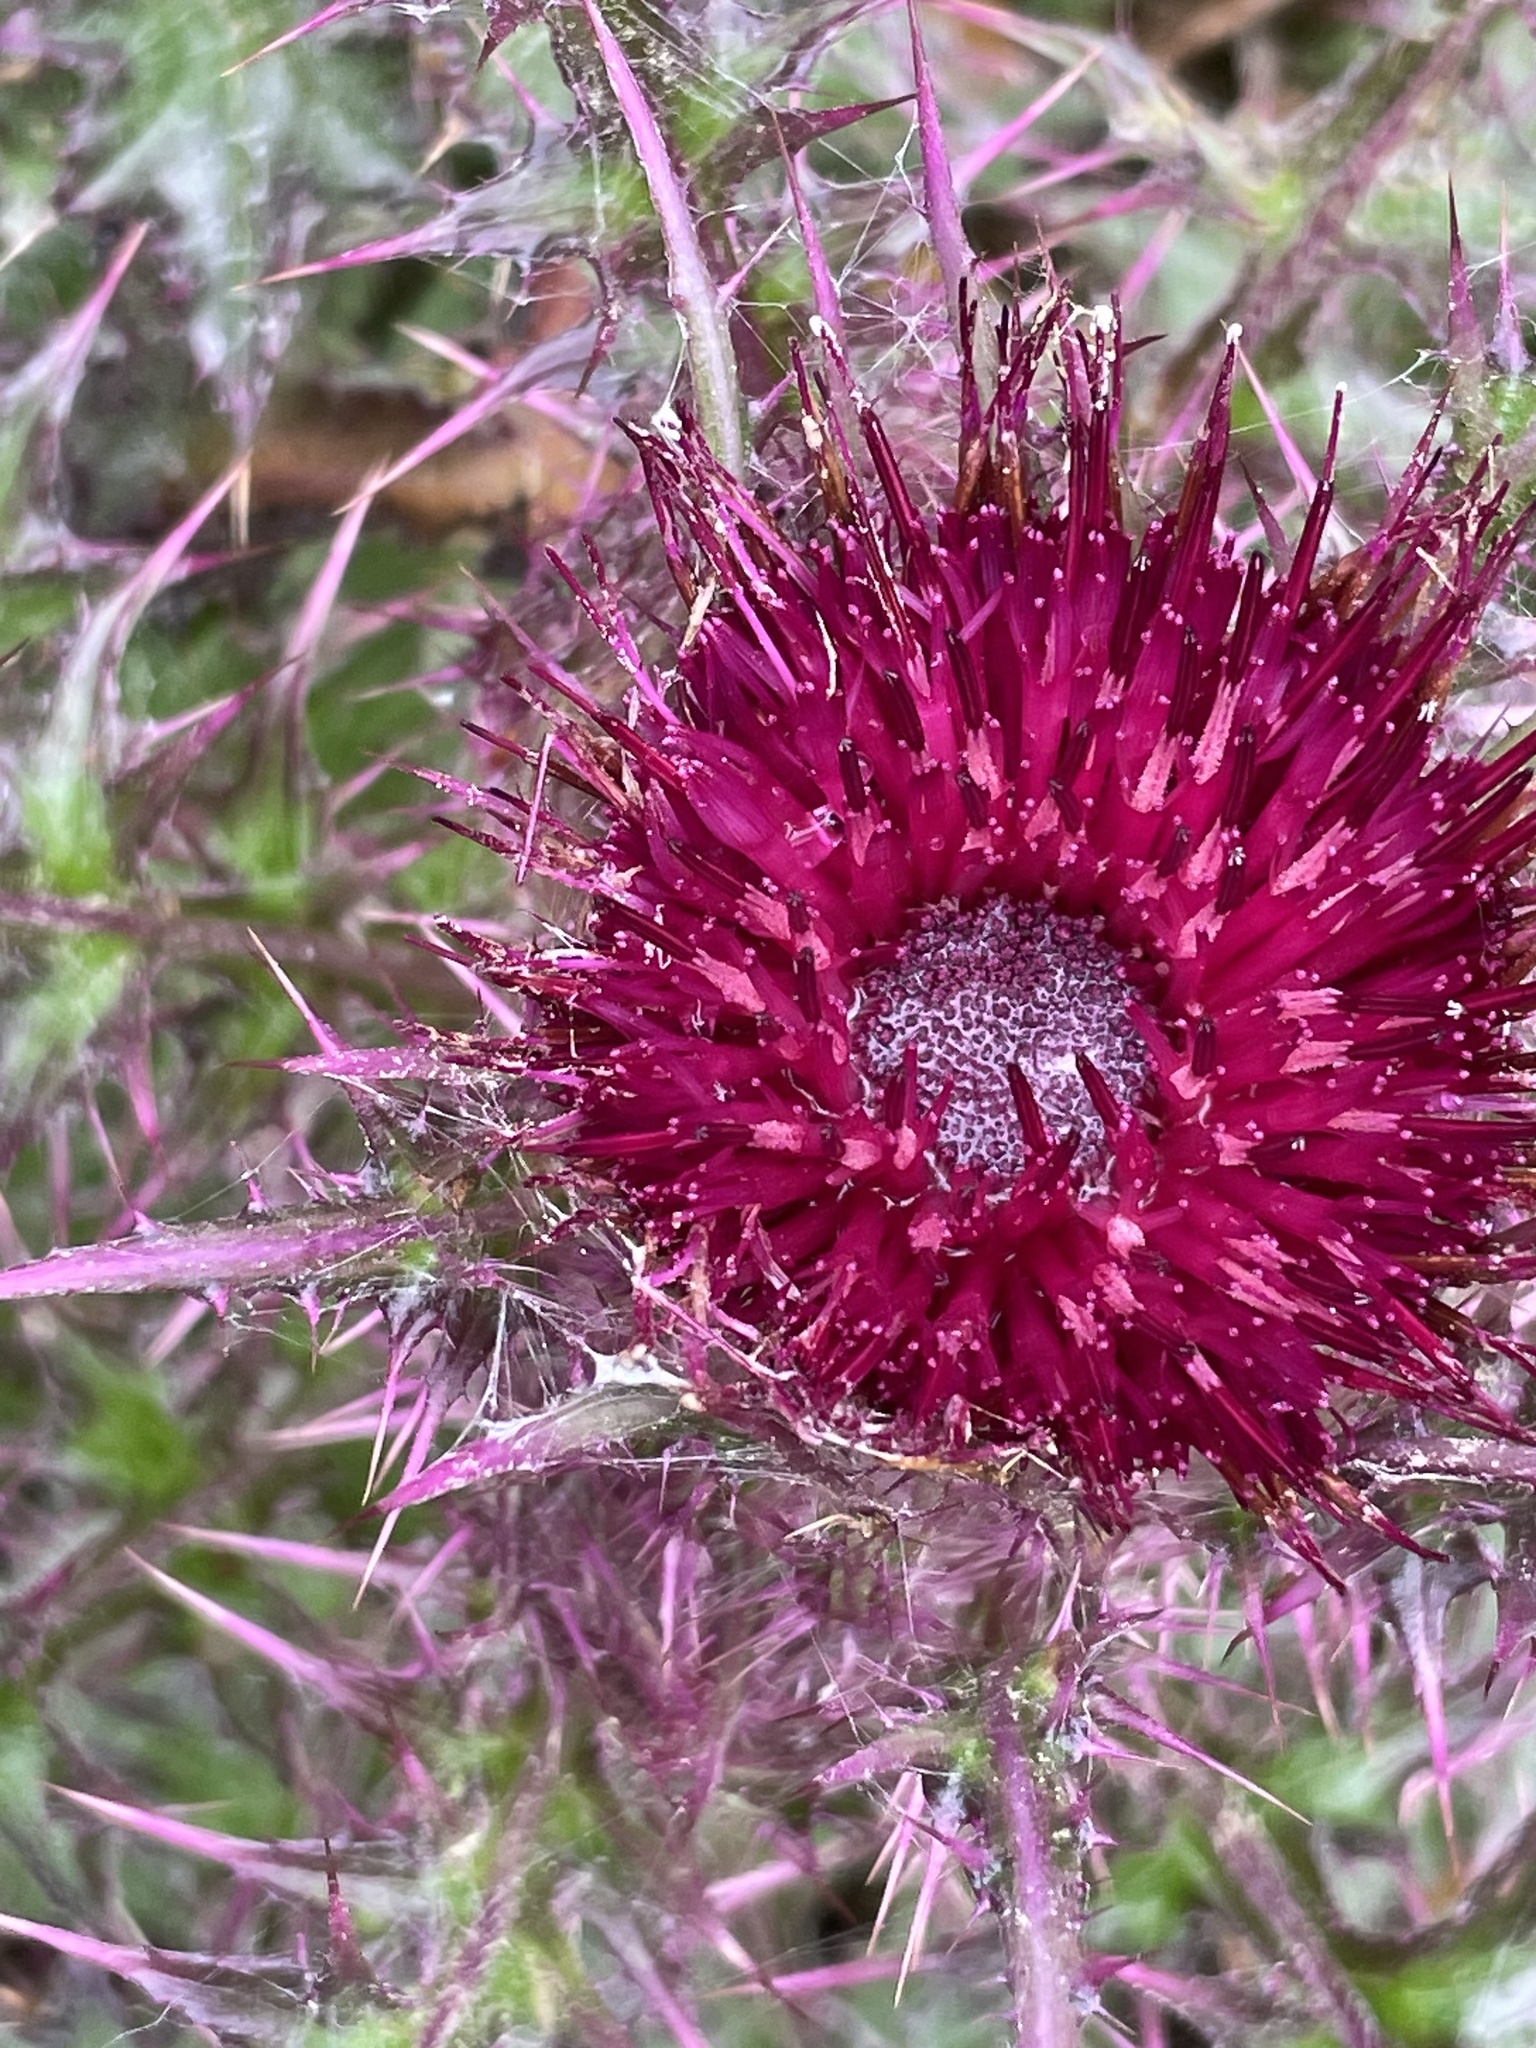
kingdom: Plantae
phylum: Tracheophyta
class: Magnoliopsida
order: Asterales
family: Asteraceae
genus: Cirsium
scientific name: Cirsium horridulum
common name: Bristly thistle
